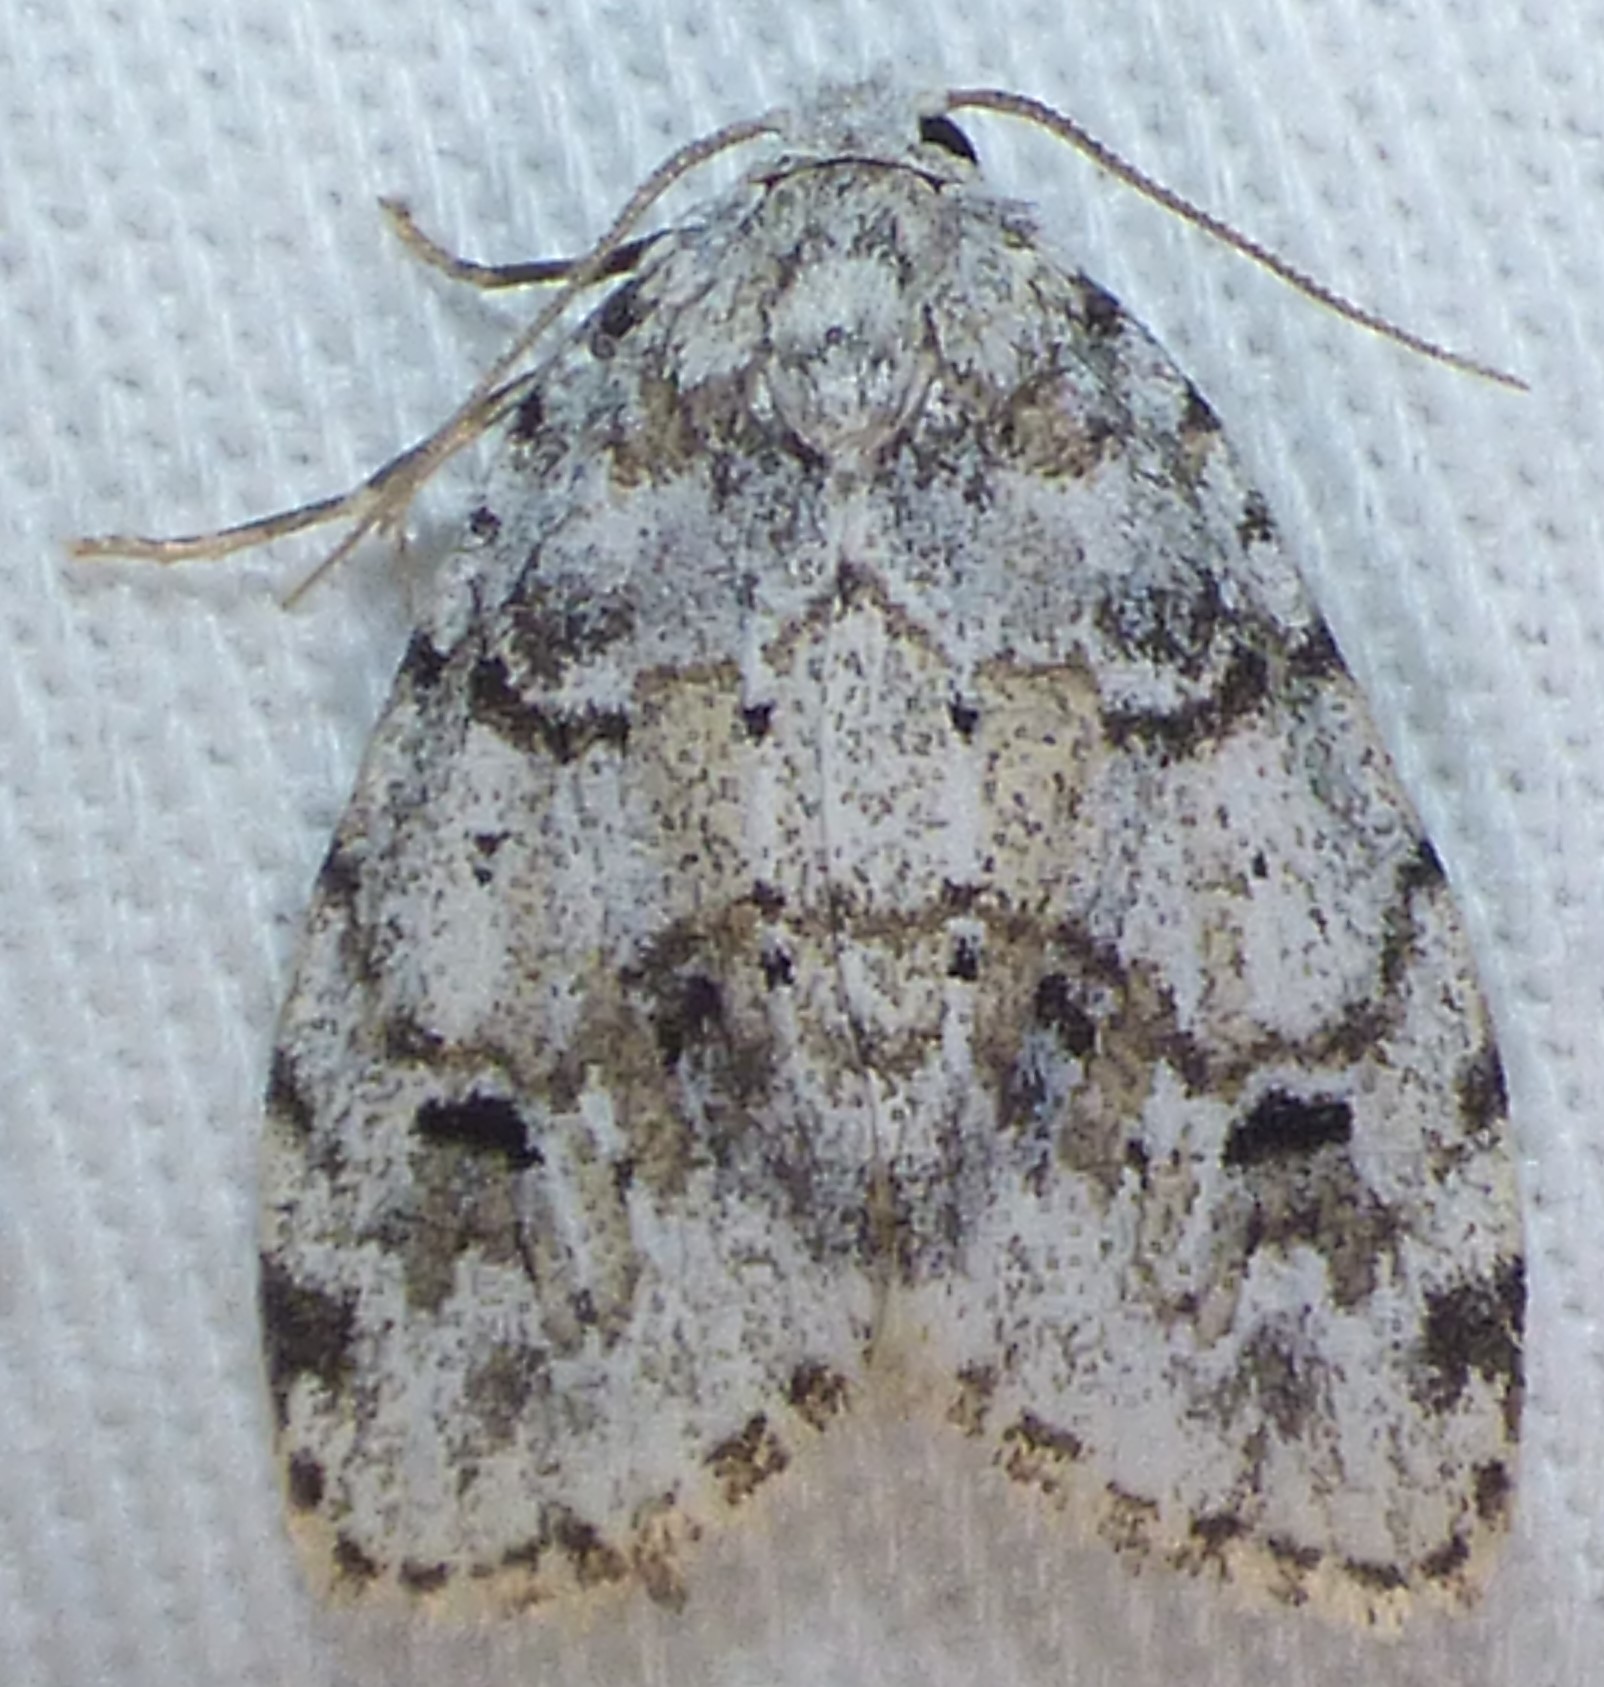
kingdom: Animalia
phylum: Arthropoda
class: Insecta
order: Lepidoptera
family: Erebidae
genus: Clemensia
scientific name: Clemensia albata
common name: Little white lichen moth
